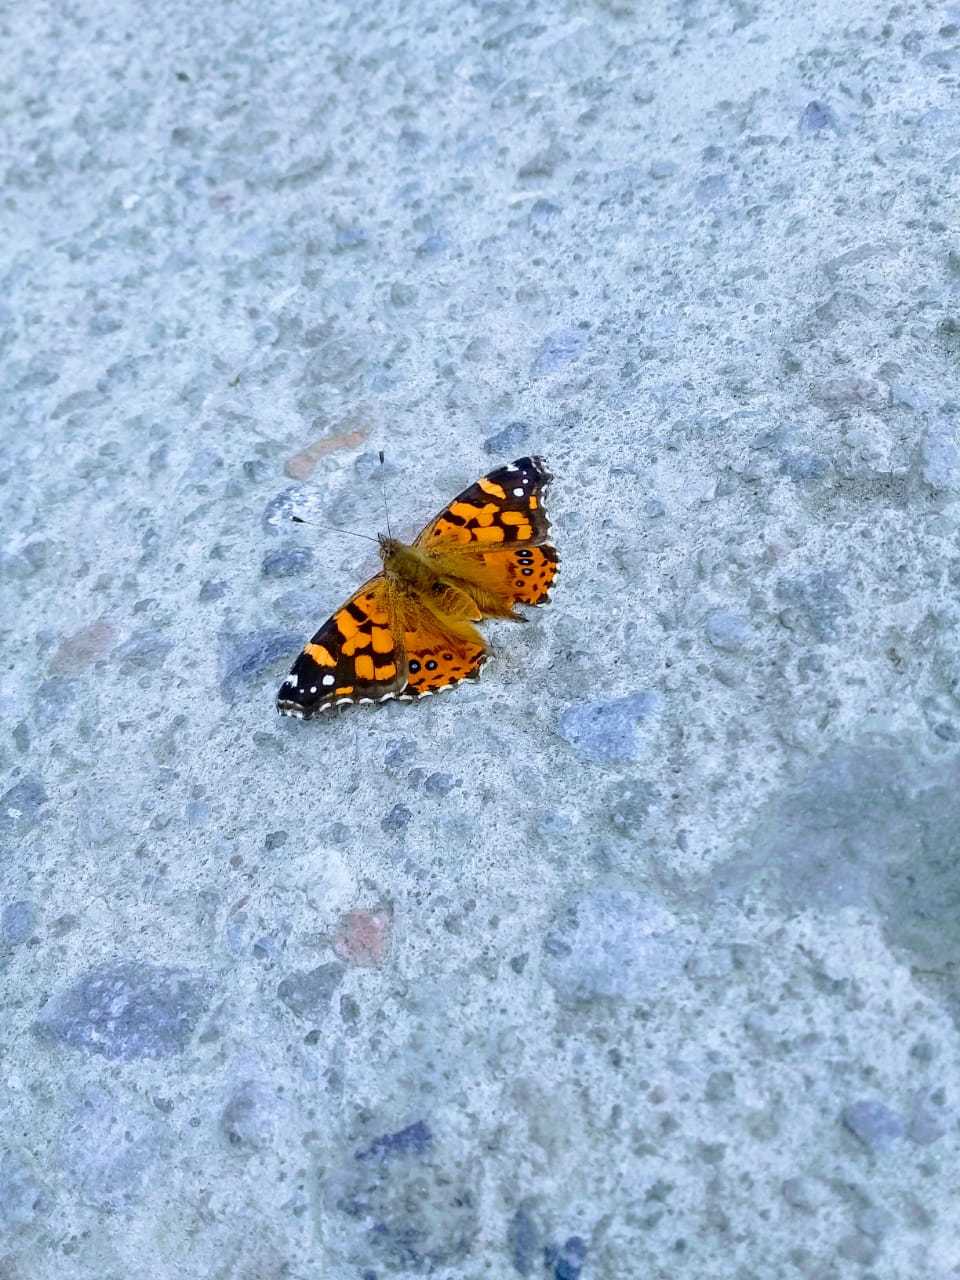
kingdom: Animalia
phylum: Arthropoda
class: Insecta
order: Lepidoptera
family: Nymphalidae
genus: Vanessa
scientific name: Vanessa carye
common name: Subtropical lady
